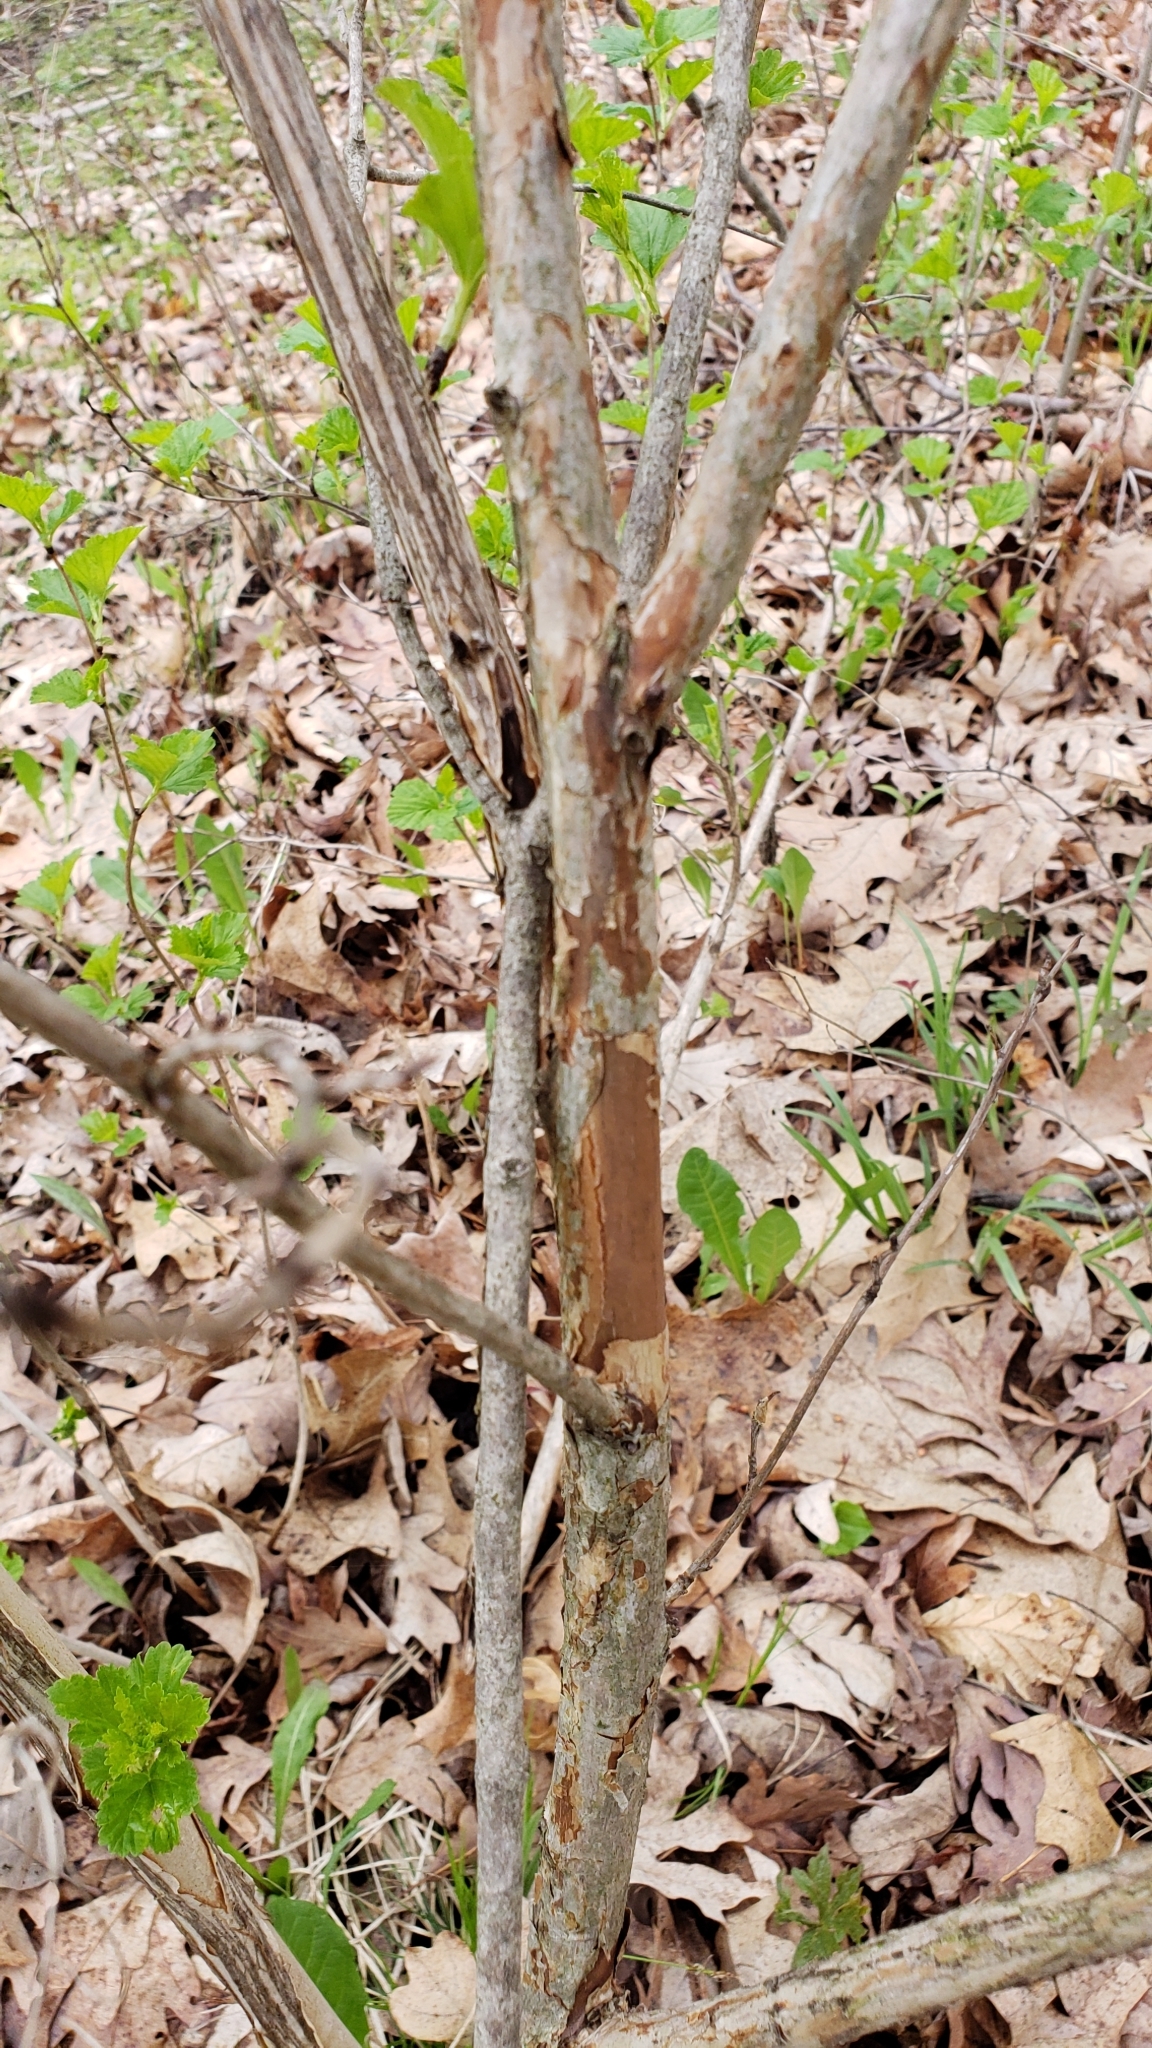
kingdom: Plantae
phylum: Tracheophyta
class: Magnoliopsida
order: Rosales
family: Rosaceae
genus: Physocarpus
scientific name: Physocarpus opulifolius
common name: Ninebark
